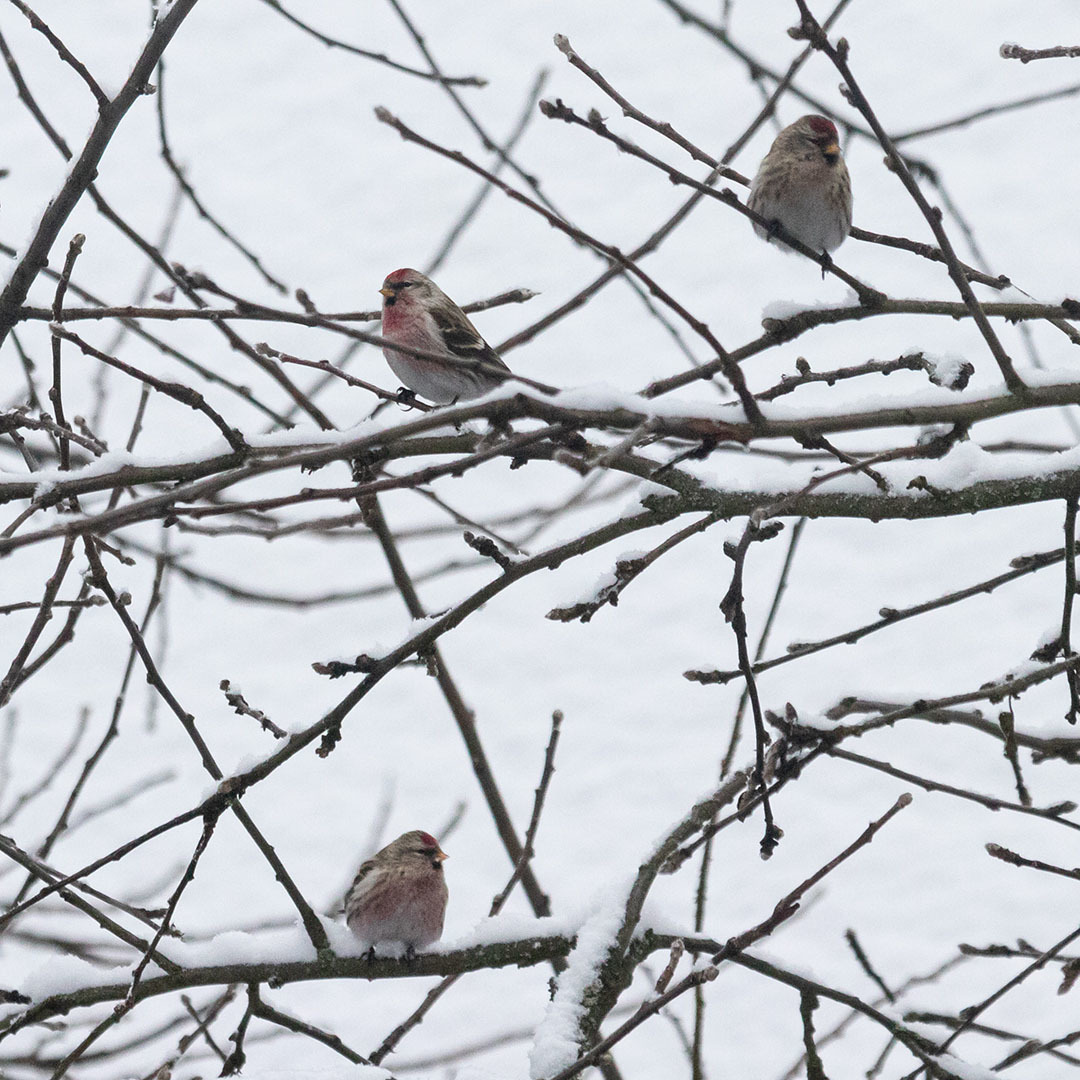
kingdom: Animalia
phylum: Chordata
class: Aves
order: Passeriformes
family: Fringillidae
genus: Acanthis
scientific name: Acanthis flammea
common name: Common redpoll
